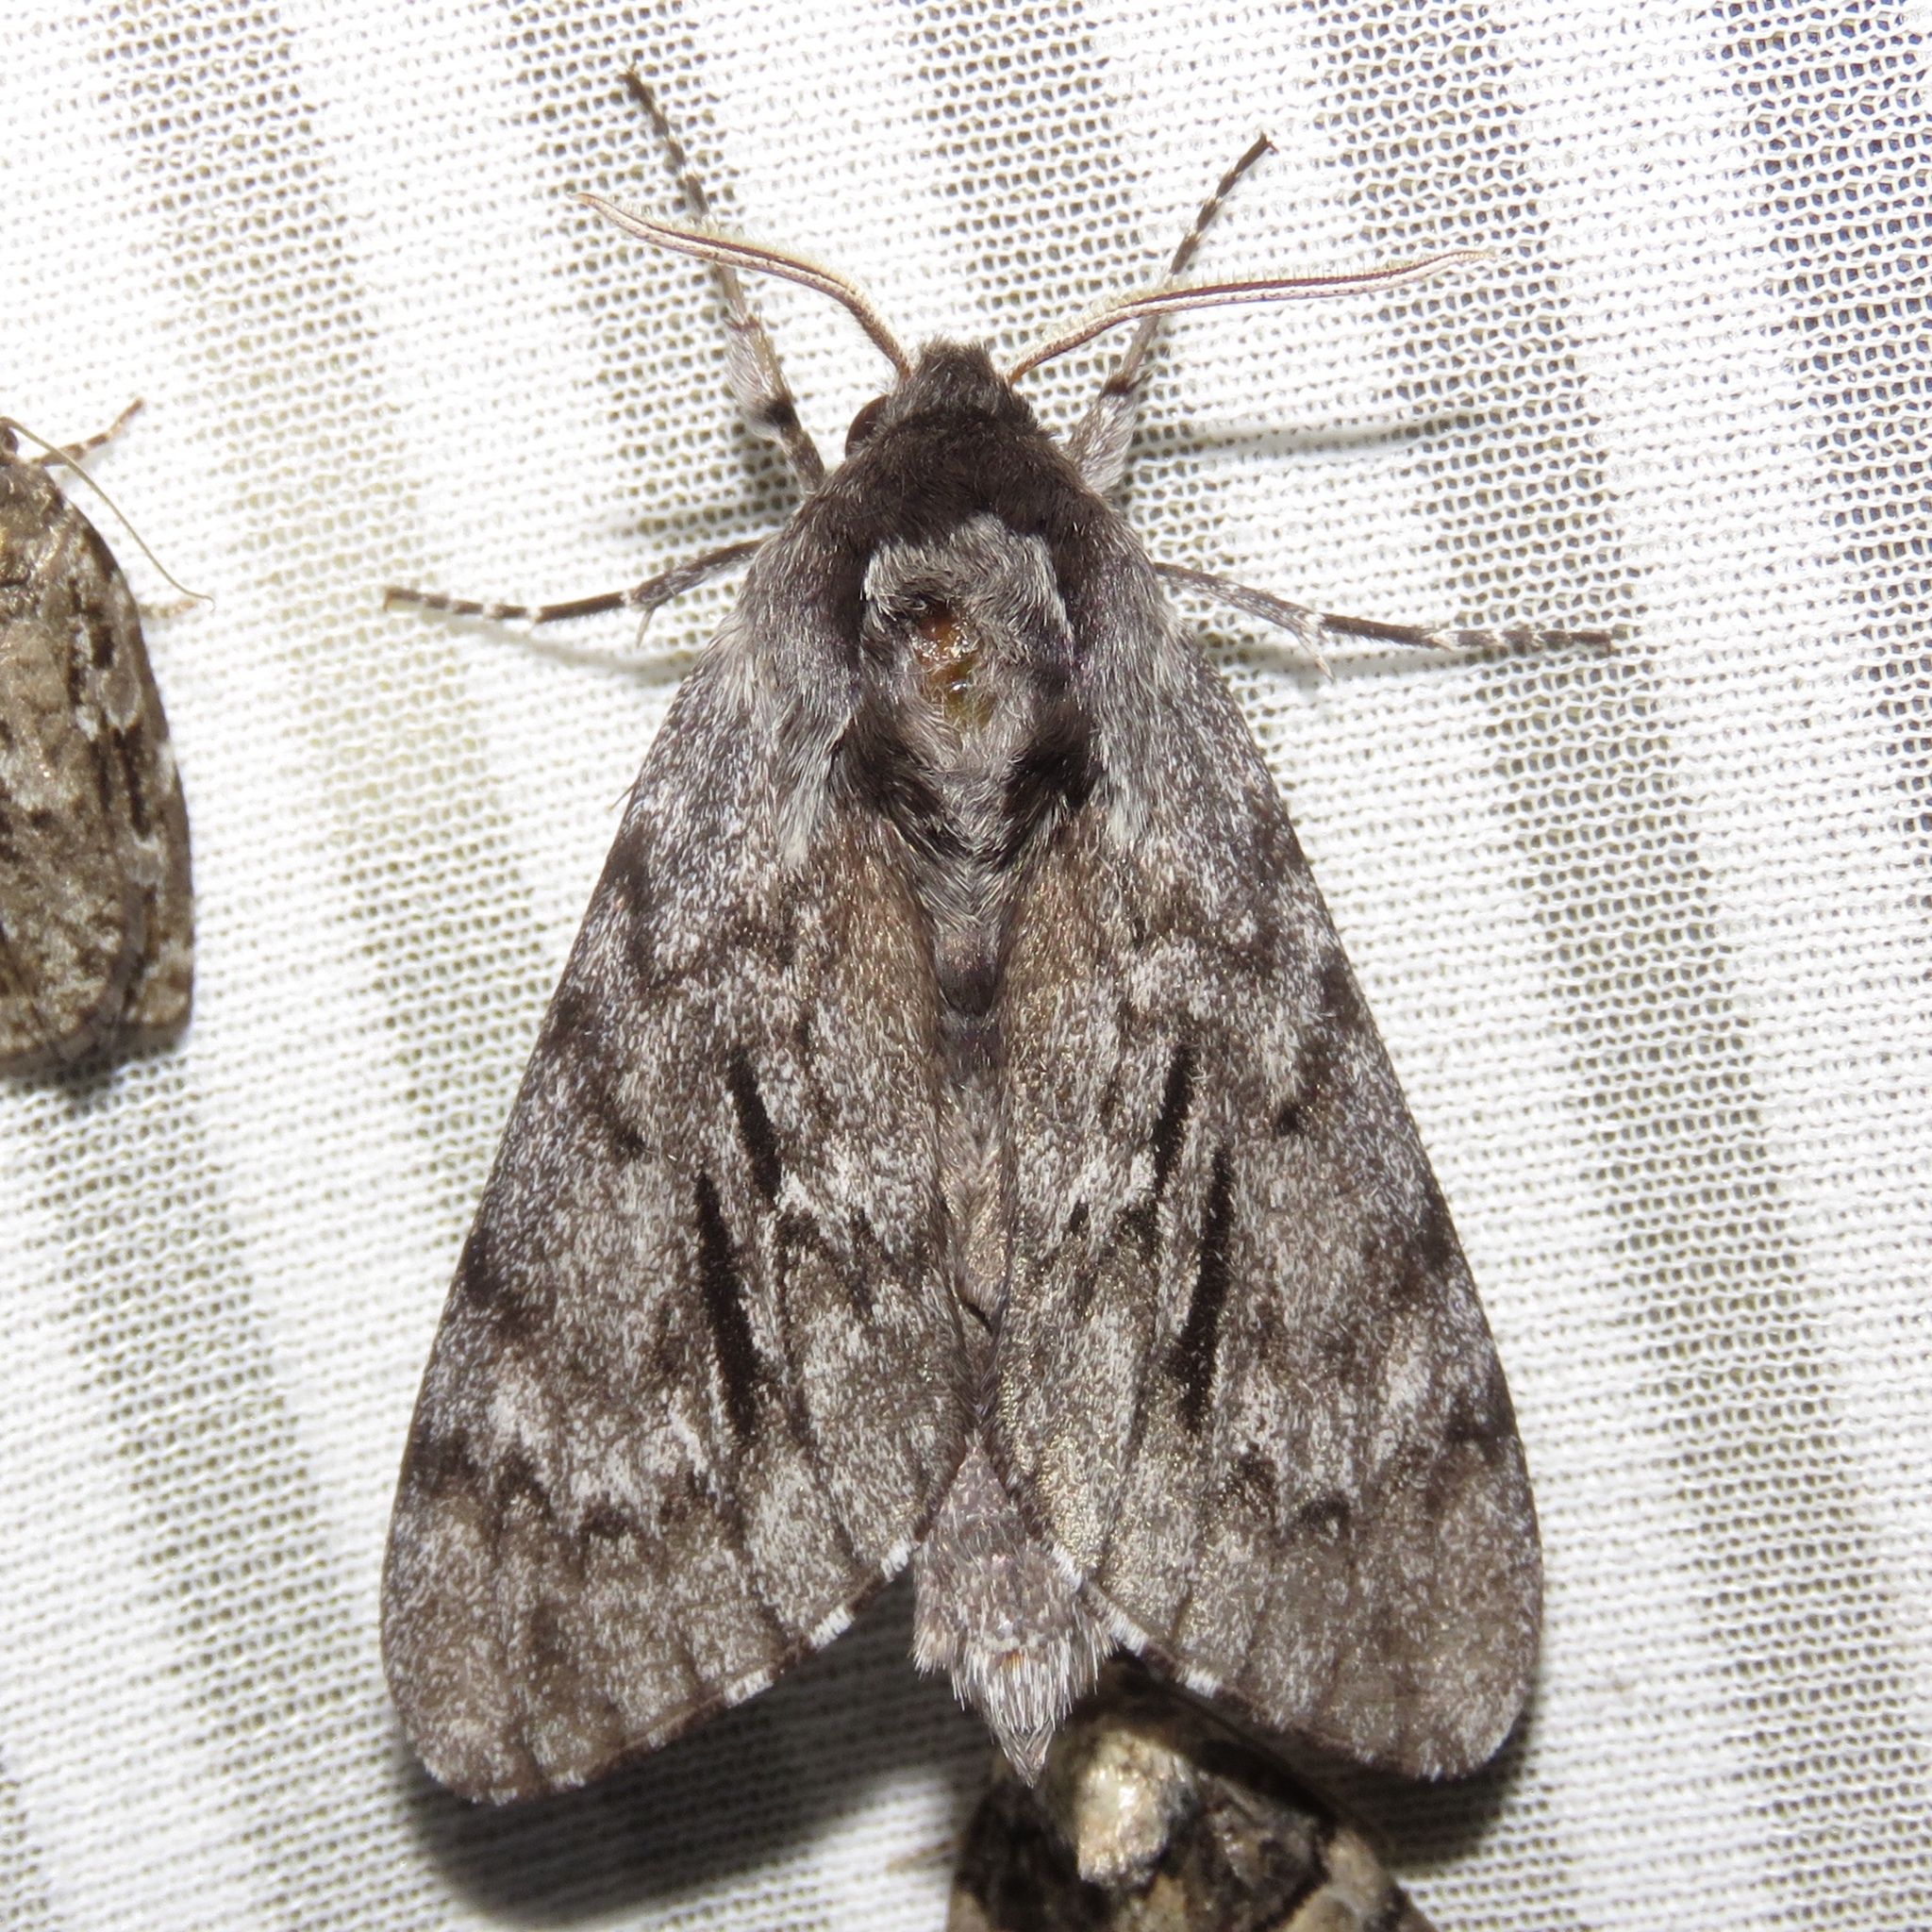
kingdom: Animalia
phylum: Arthropoda
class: Insecta
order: Lepidoptera
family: Sphingidae
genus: Lapara
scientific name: Lapara bombycoides
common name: Northern pine sphinx
